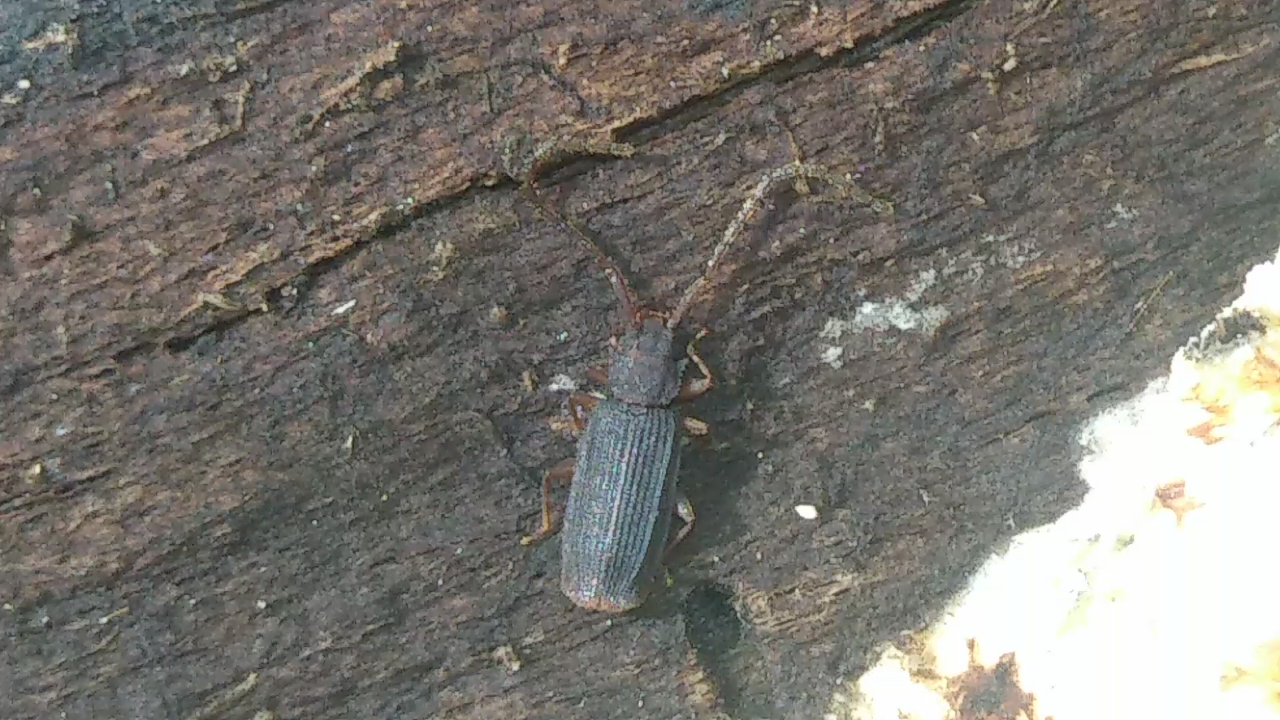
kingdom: Animalia
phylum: Arthropoda
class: Insecta
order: Coleoptera
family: Silvanidae
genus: Uleiota
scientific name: Uleiota dubia
